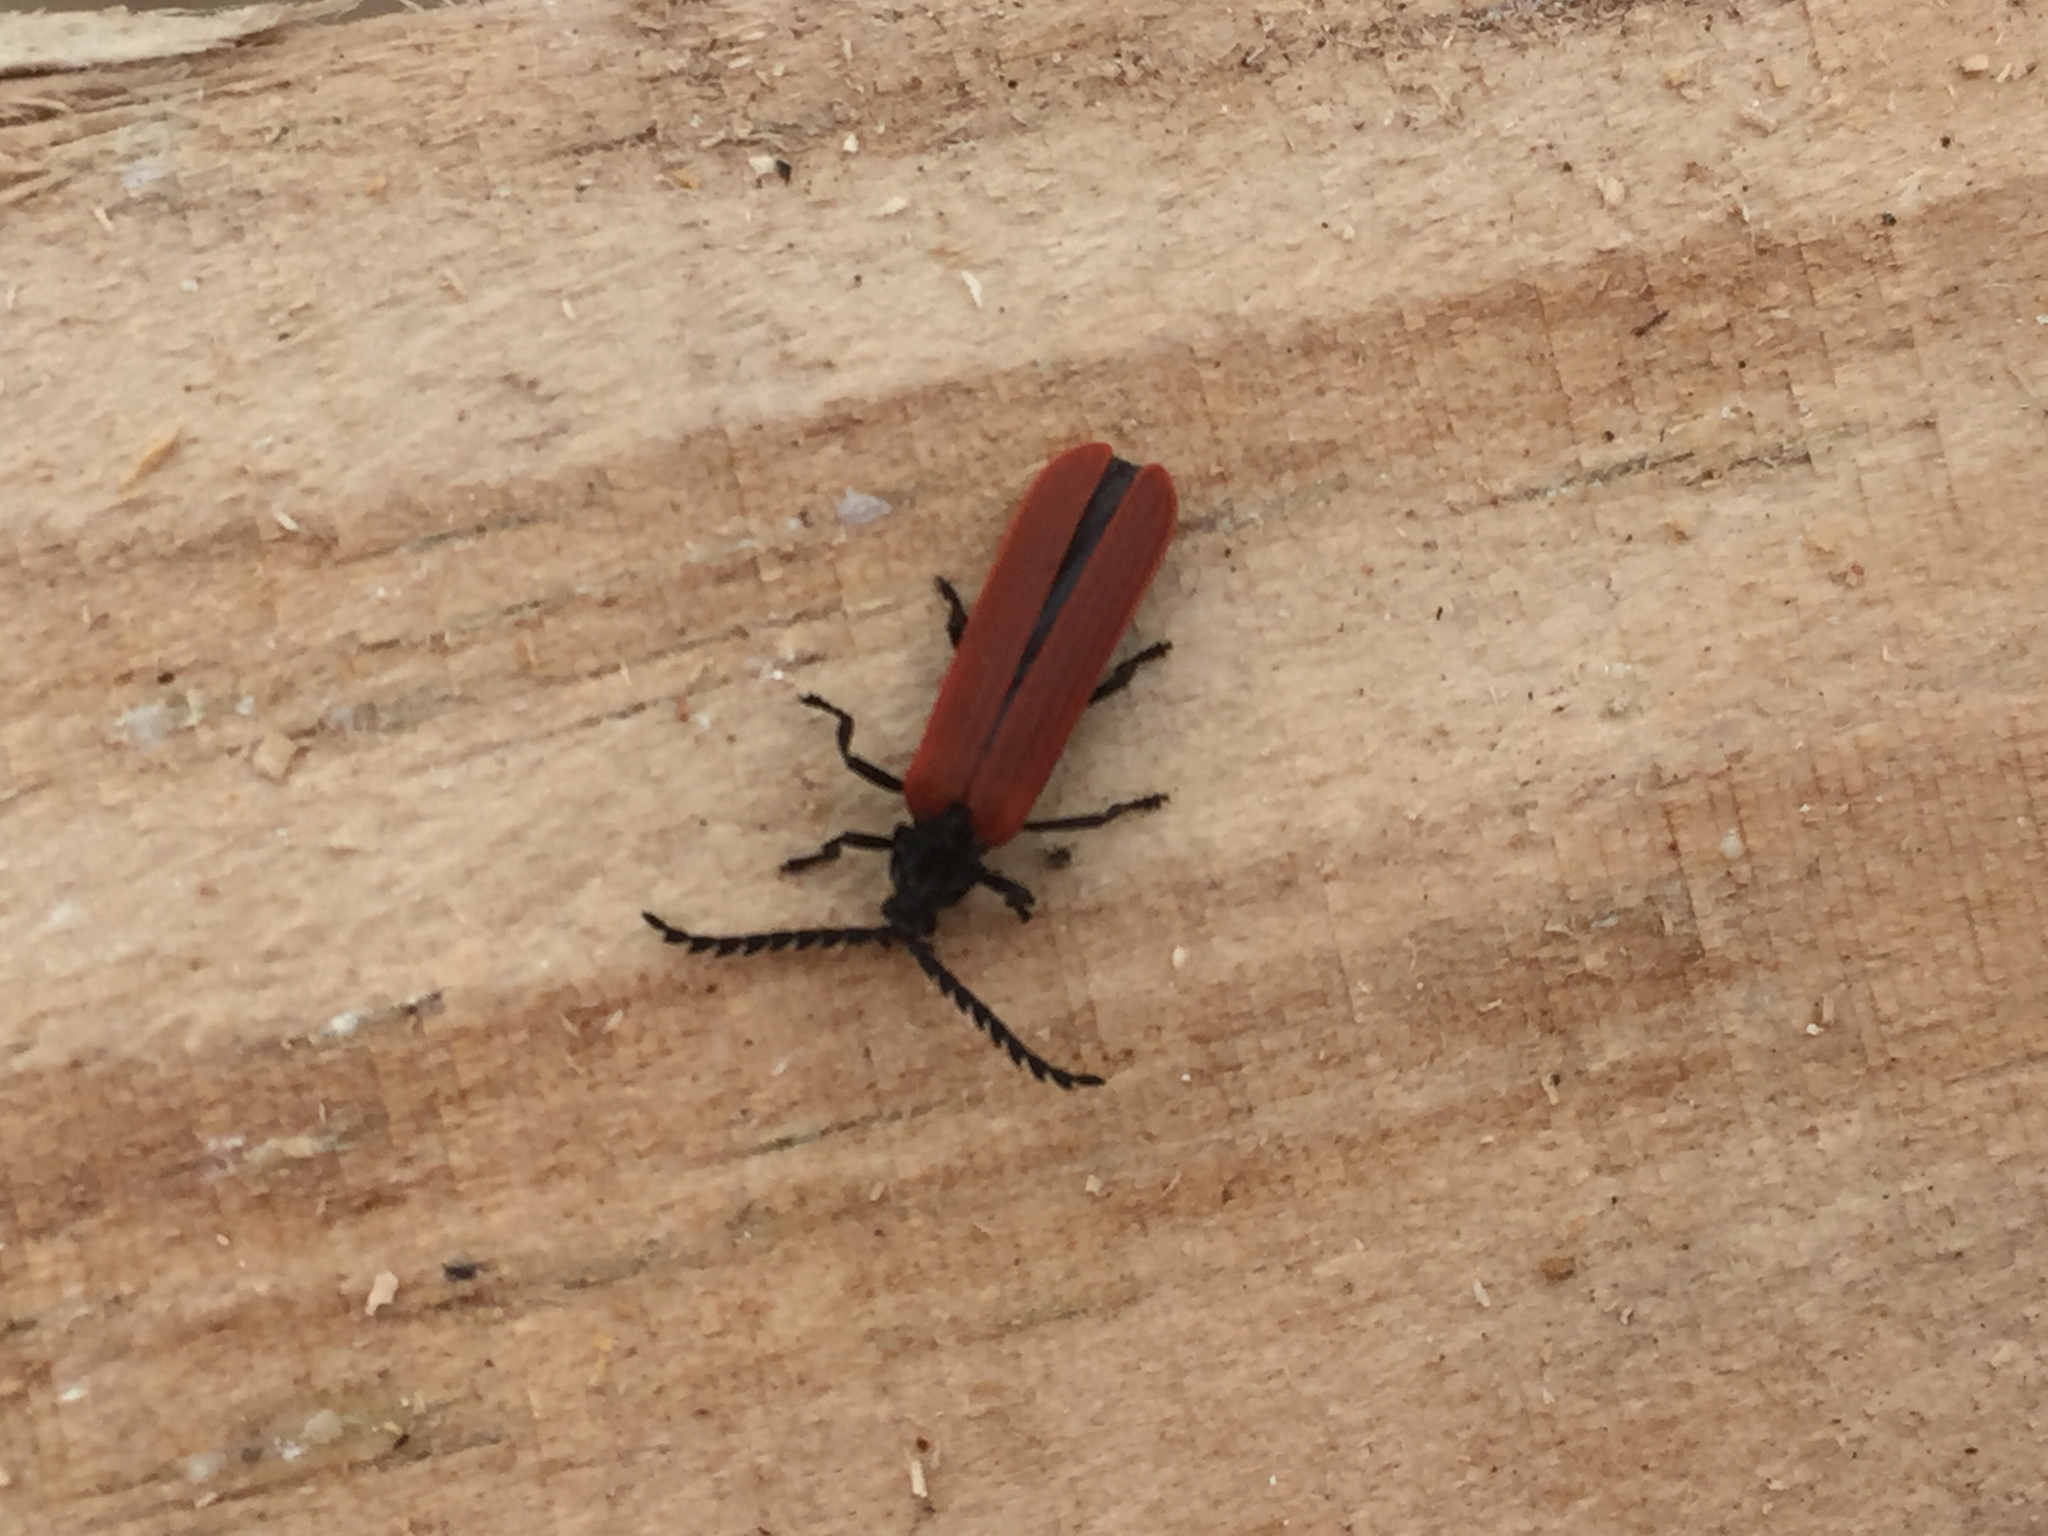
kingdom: Animalia
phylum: Arthropoda
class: Insecta
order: Coleoptera
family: Lycidae
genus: Porrostoma
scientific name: Porrostoma rufipenne
